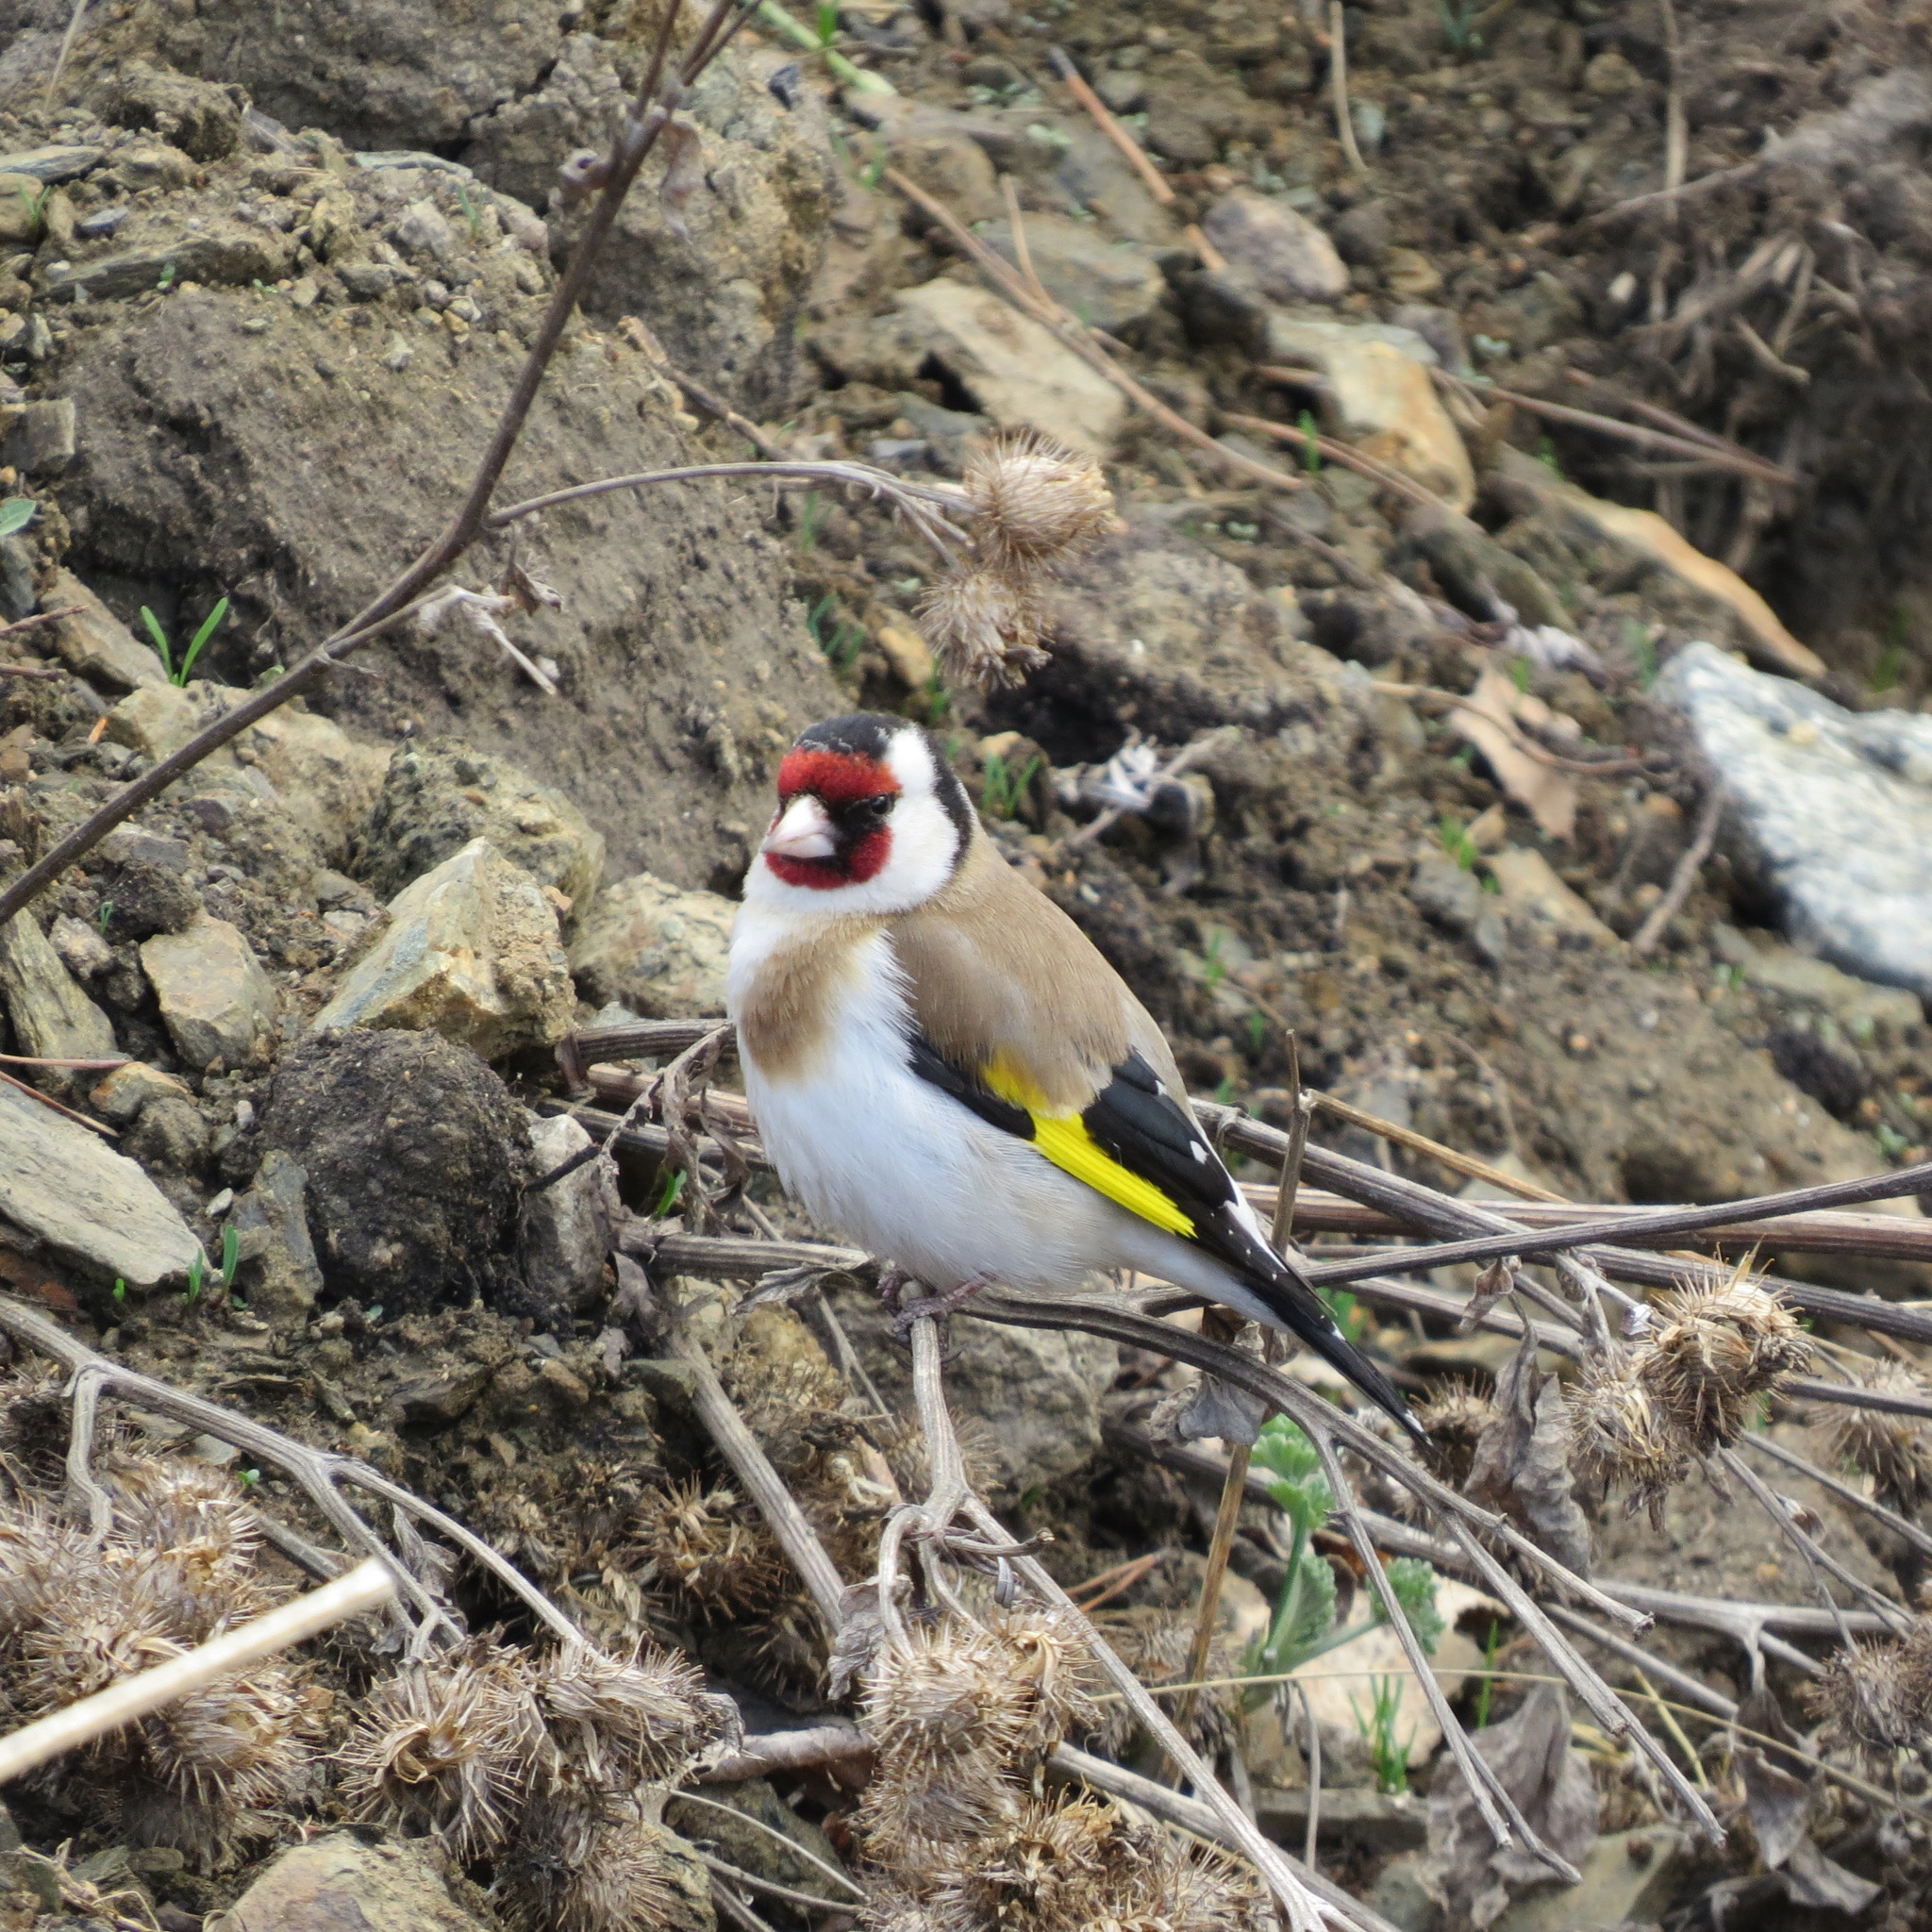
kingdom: Animalia
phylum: Chordata
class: Aves
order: Passeriformes
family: Fringillidae
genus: Carduelis
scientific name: Carduelis carduelis
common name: European goldfinch
